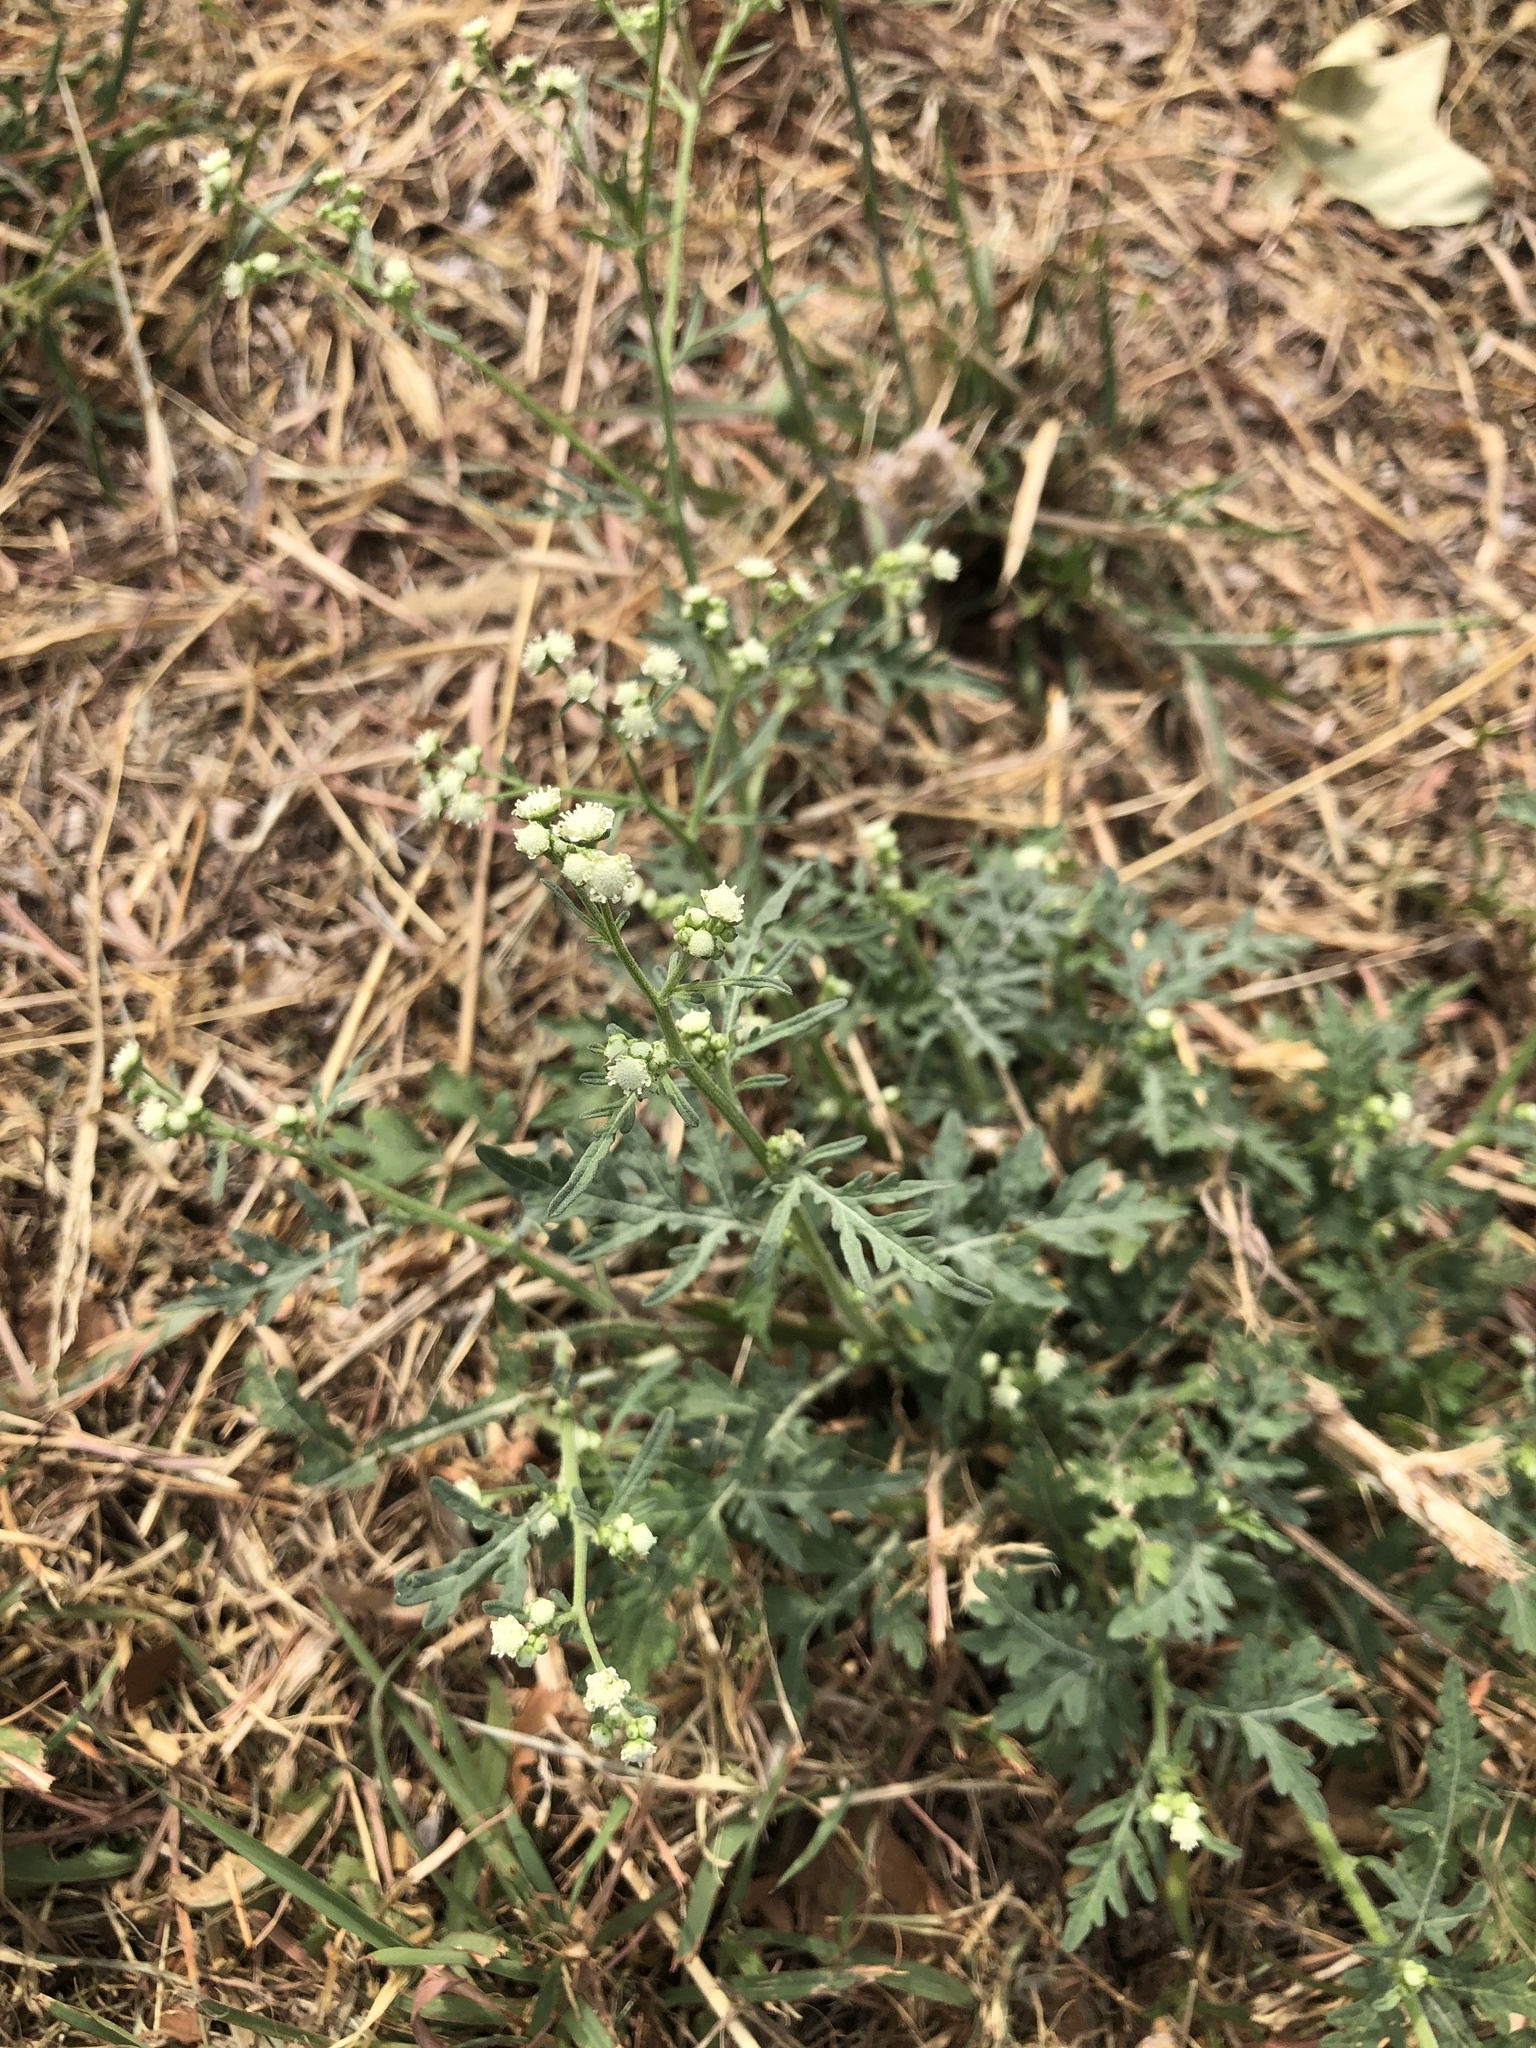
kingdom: Plantae
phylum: Tracheophyta
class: Magnoliopsida
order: Asterales
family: Asteraceae
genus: Parthenium
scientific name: Parthenium hysterophorus
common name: Santa maria feverfew
